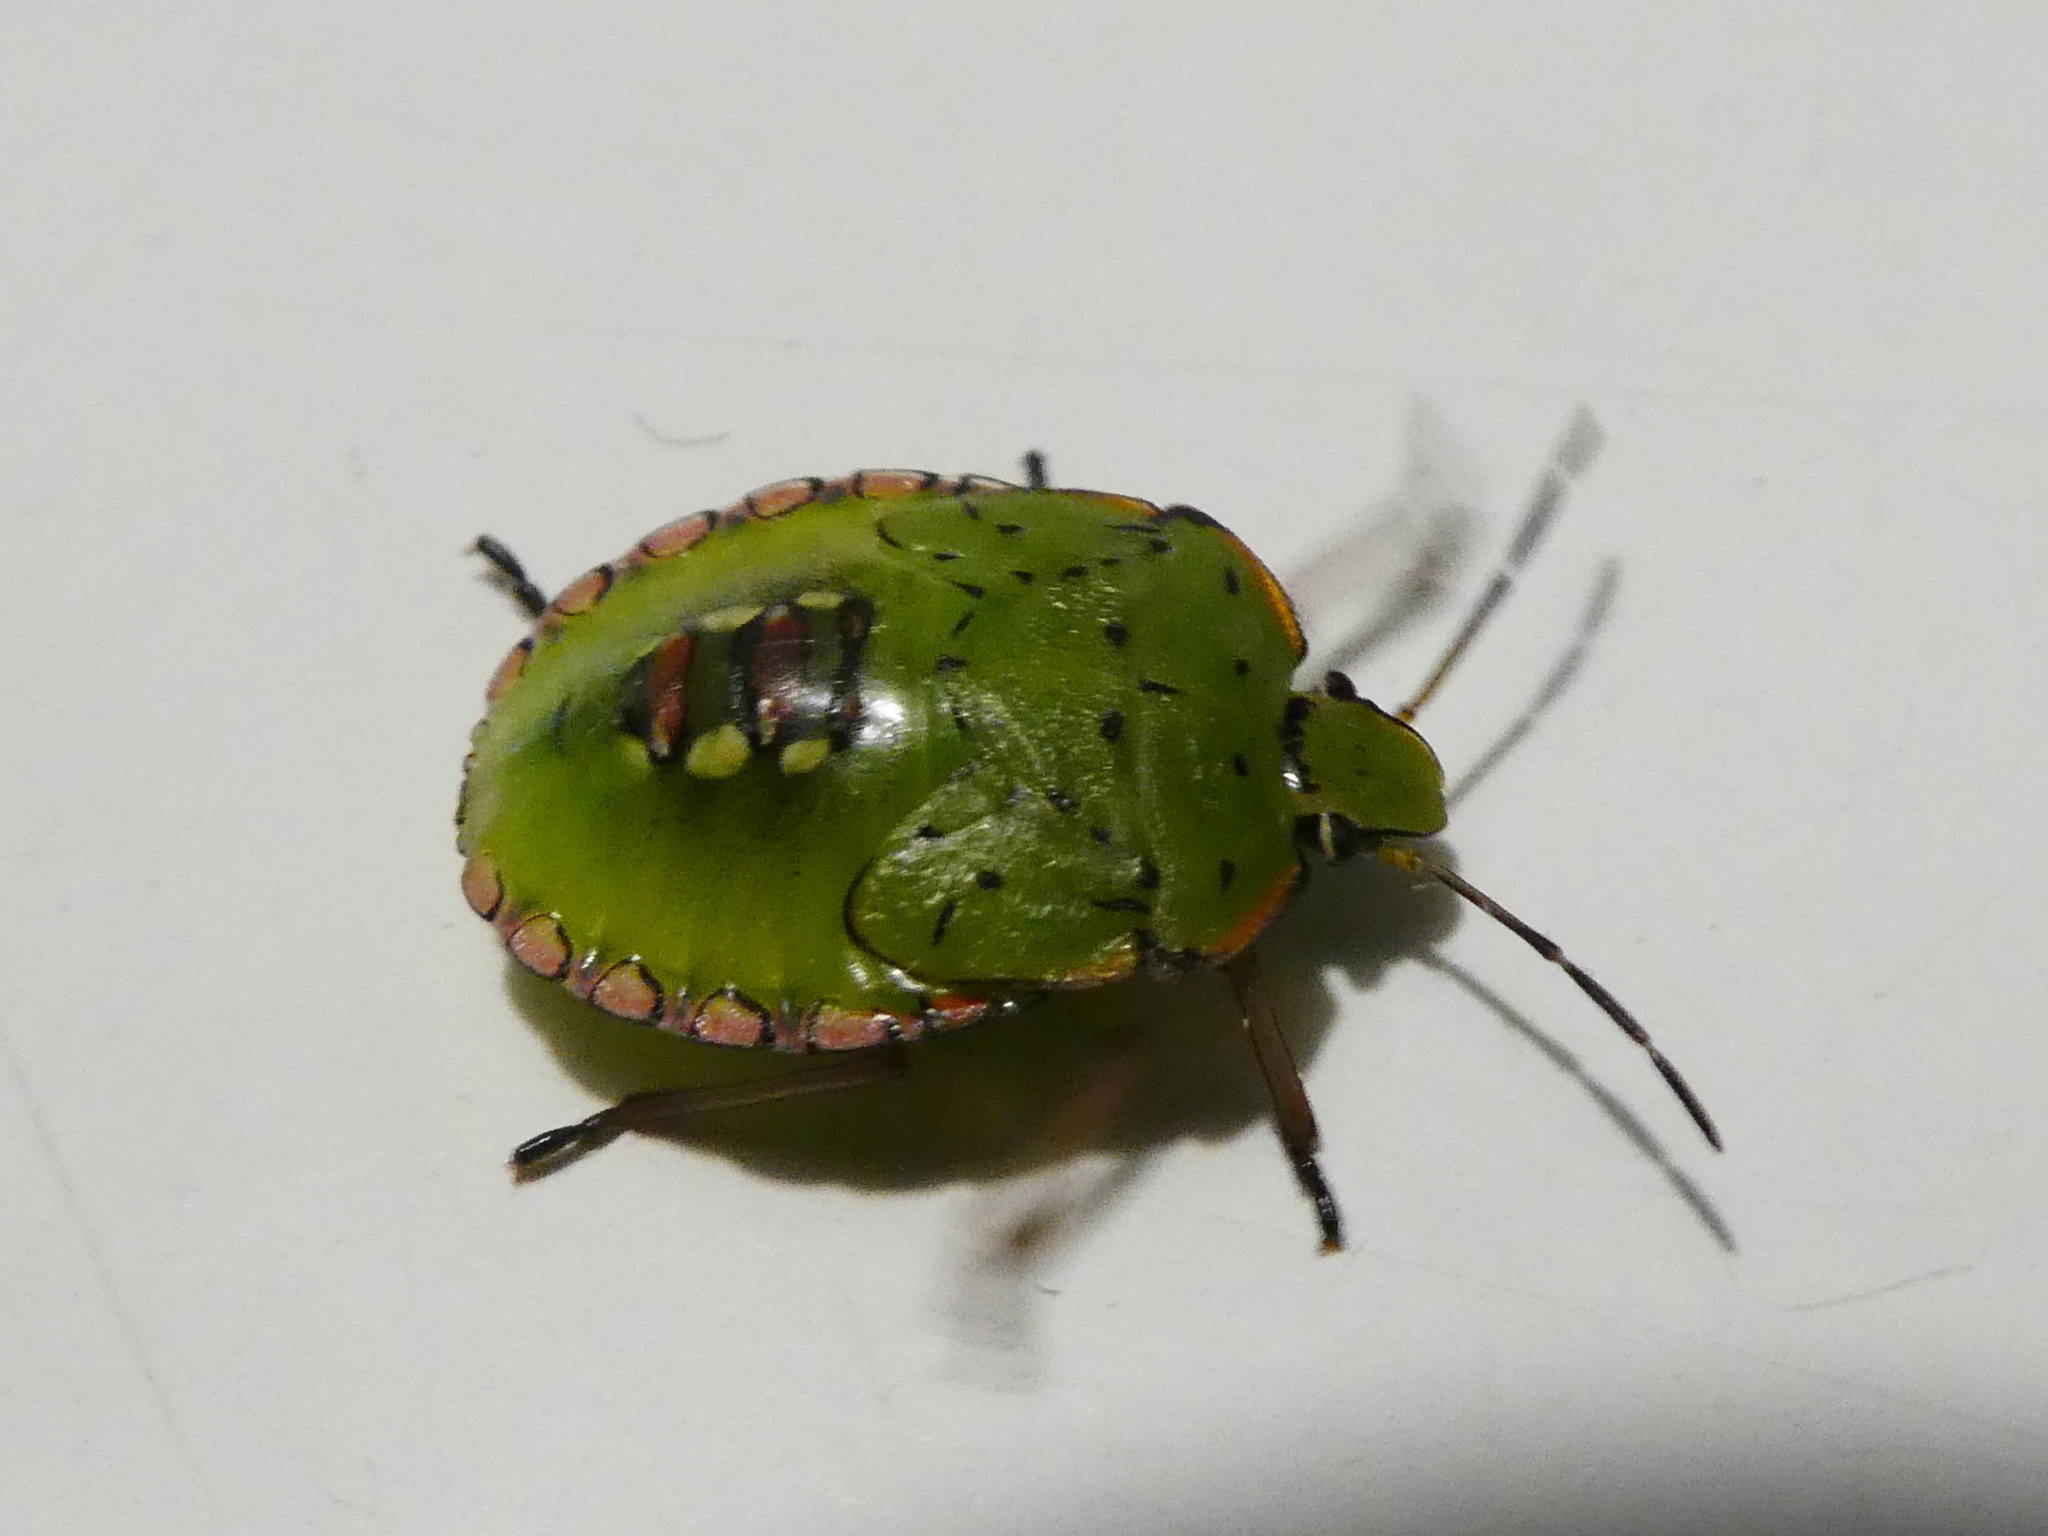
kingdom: Animalia
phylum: Arthropoda
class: Insecta
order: Hemiptera
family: Pentatomidae
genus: Nezara
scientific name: Nezara viridula
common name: Southern green stink bug
